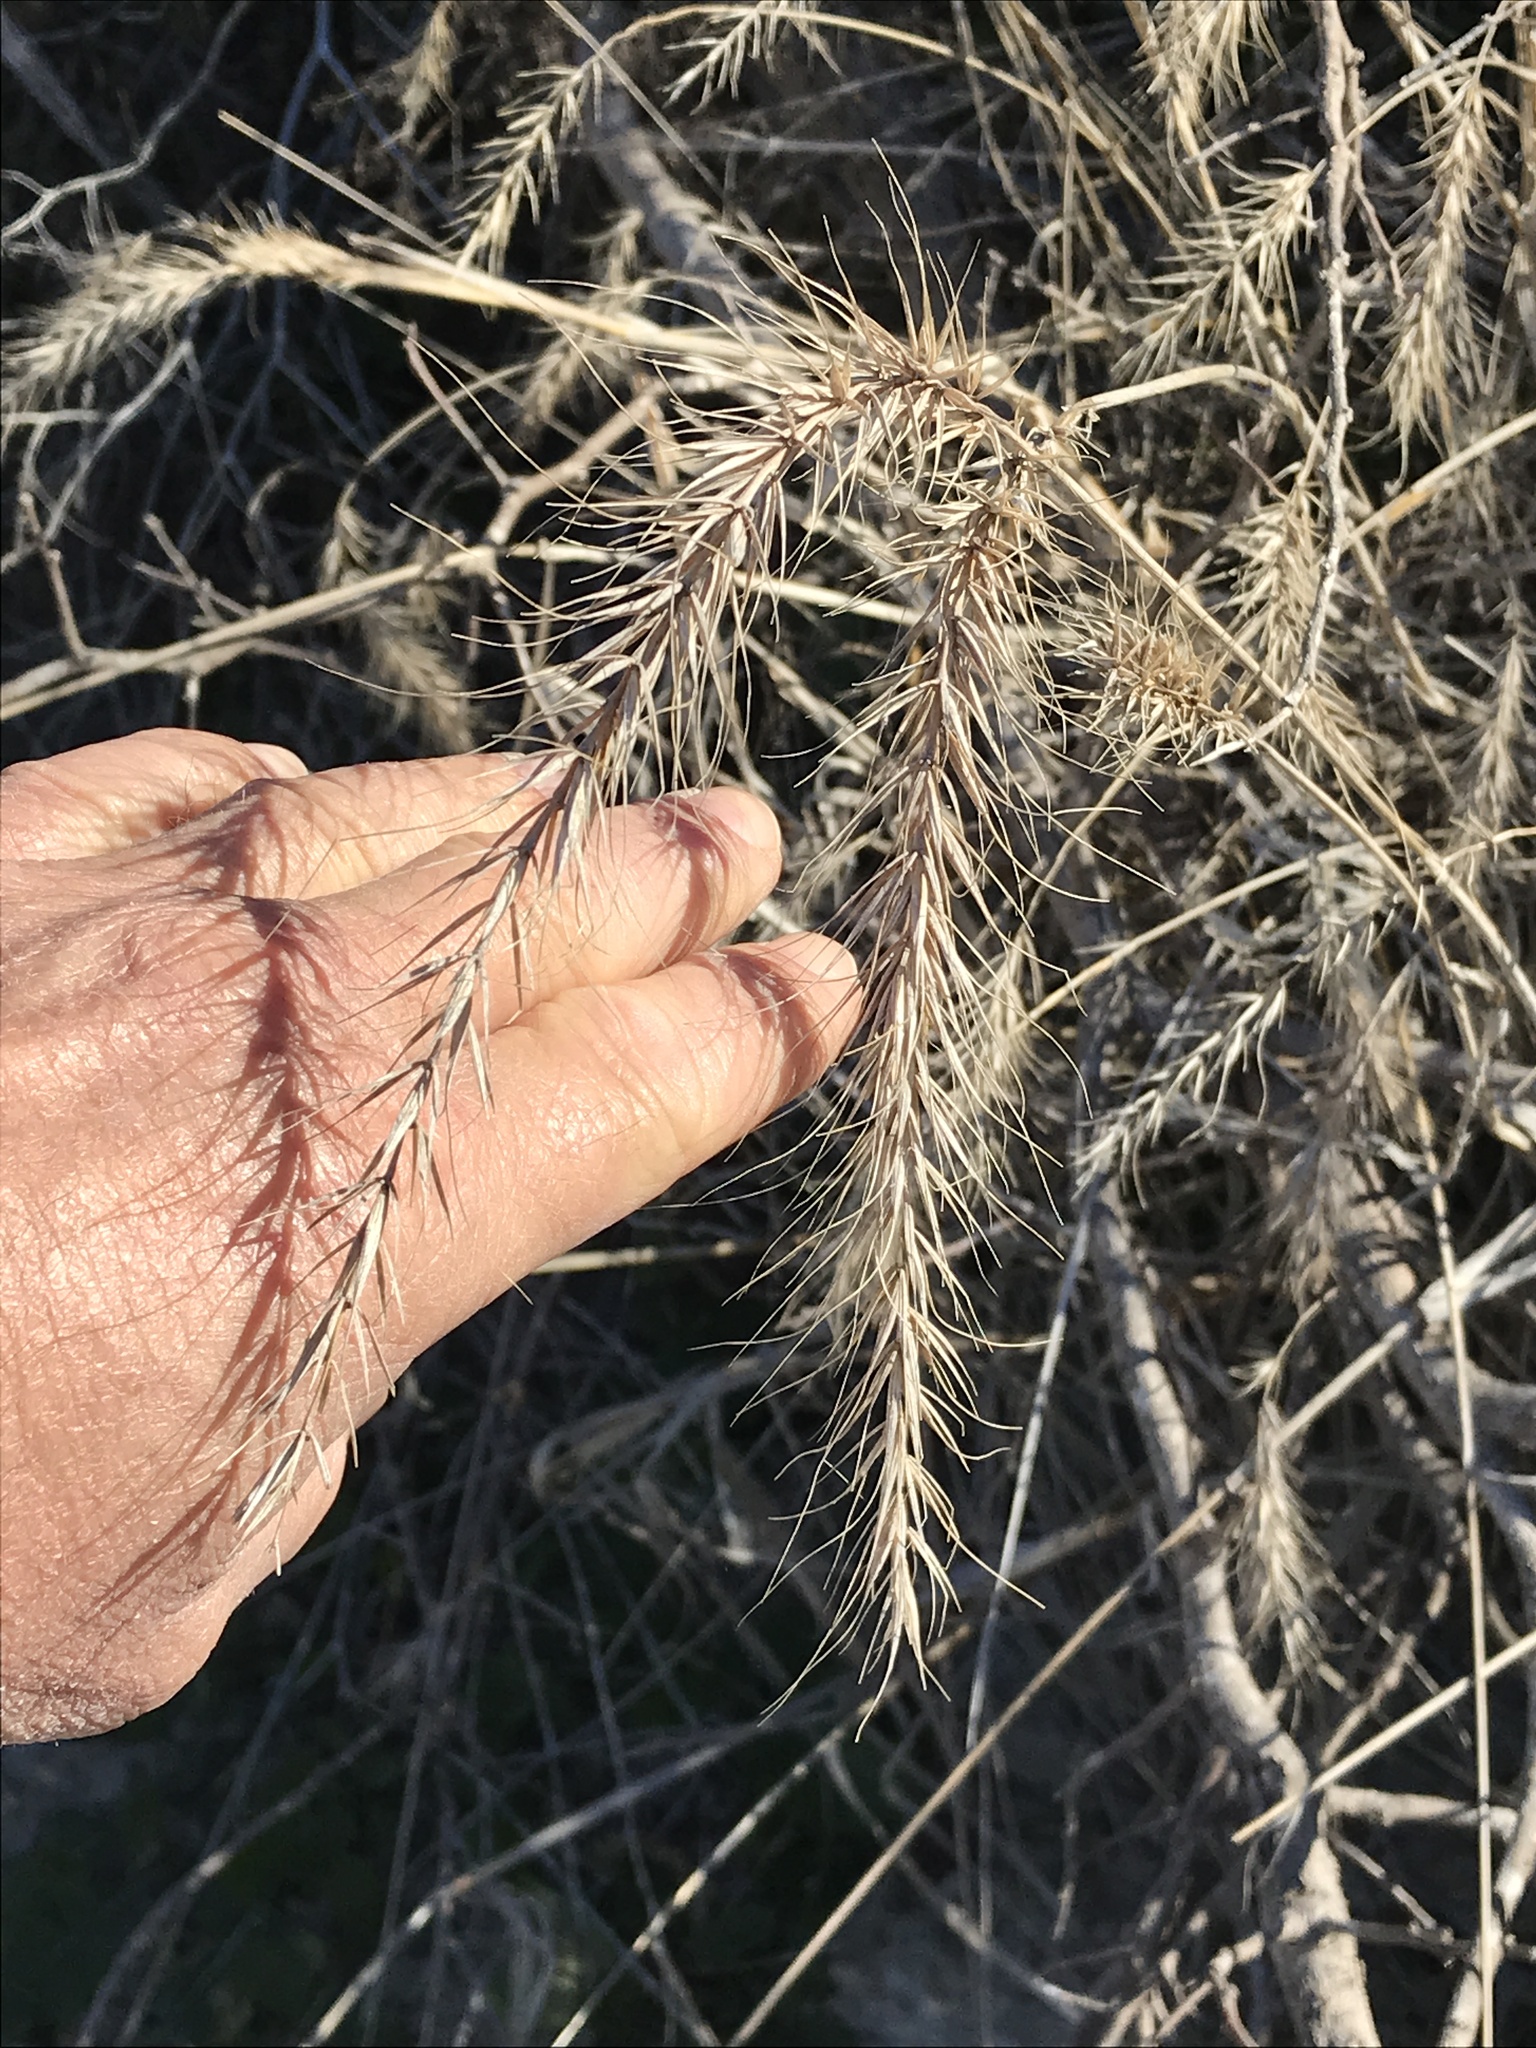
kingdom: Plantae
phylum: Tracheophyta
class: Liliopsida
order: Poales
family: Poaceae
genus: Elymus
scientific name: Elymus canadensis
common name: Canada wild rye
